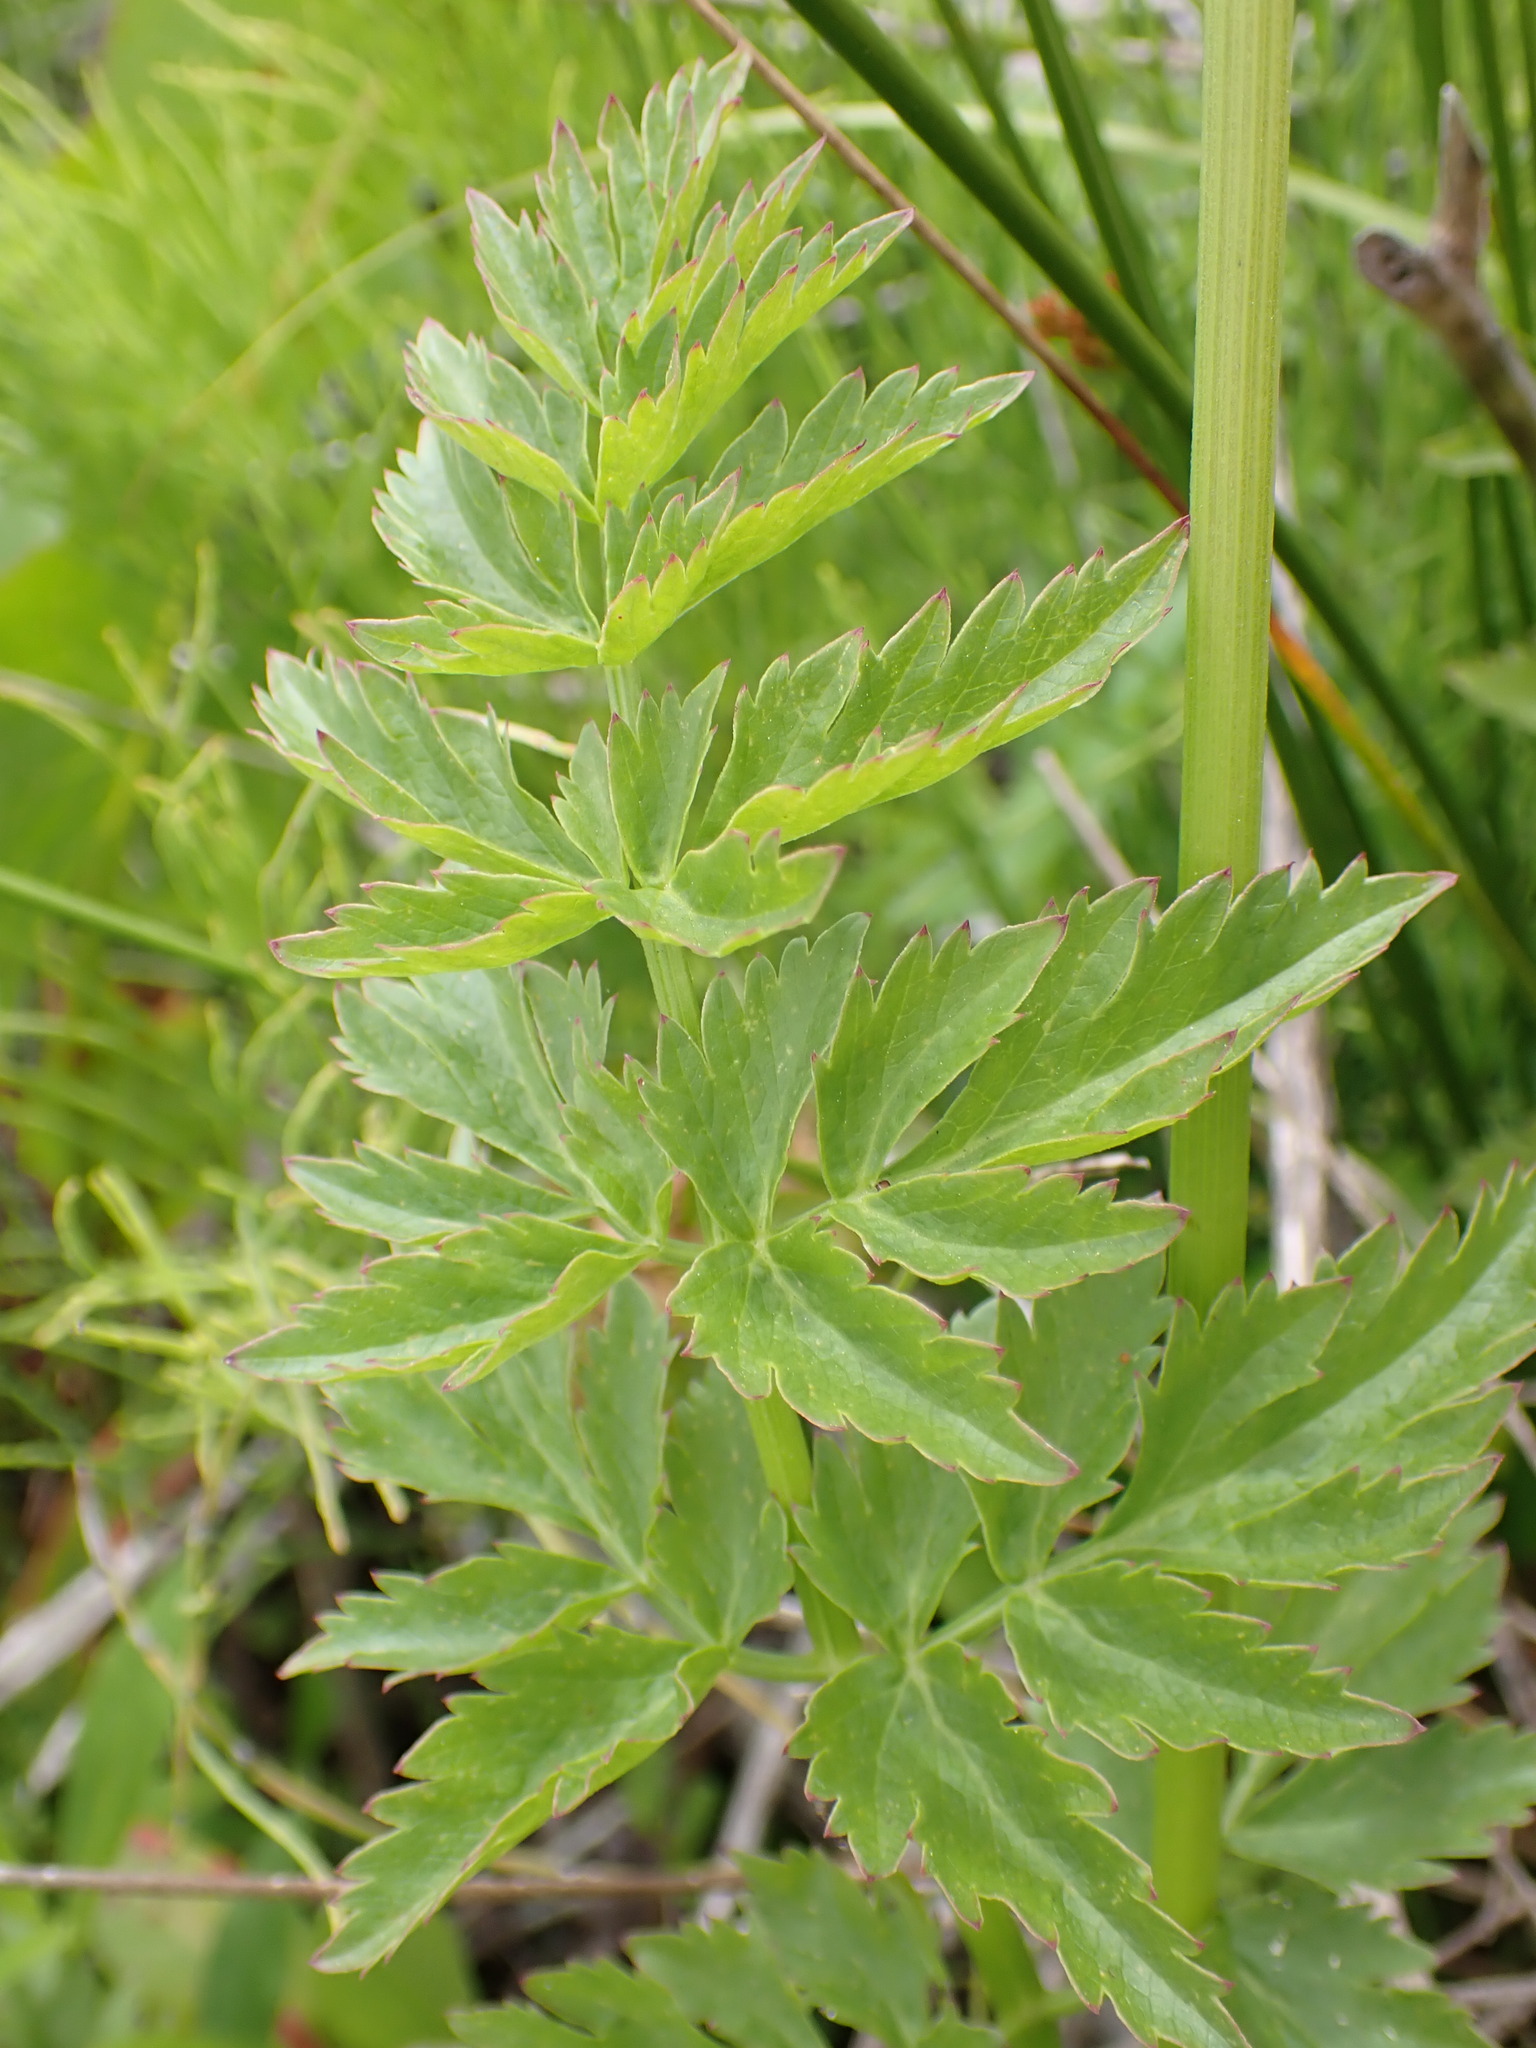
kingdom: Plantae
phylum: Tracheophyta
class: Magnoliopsida
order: Apiales
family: Apiaceae
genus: Oenanthe
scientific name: Oenanthe sarmentosa
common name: American water-parsley
